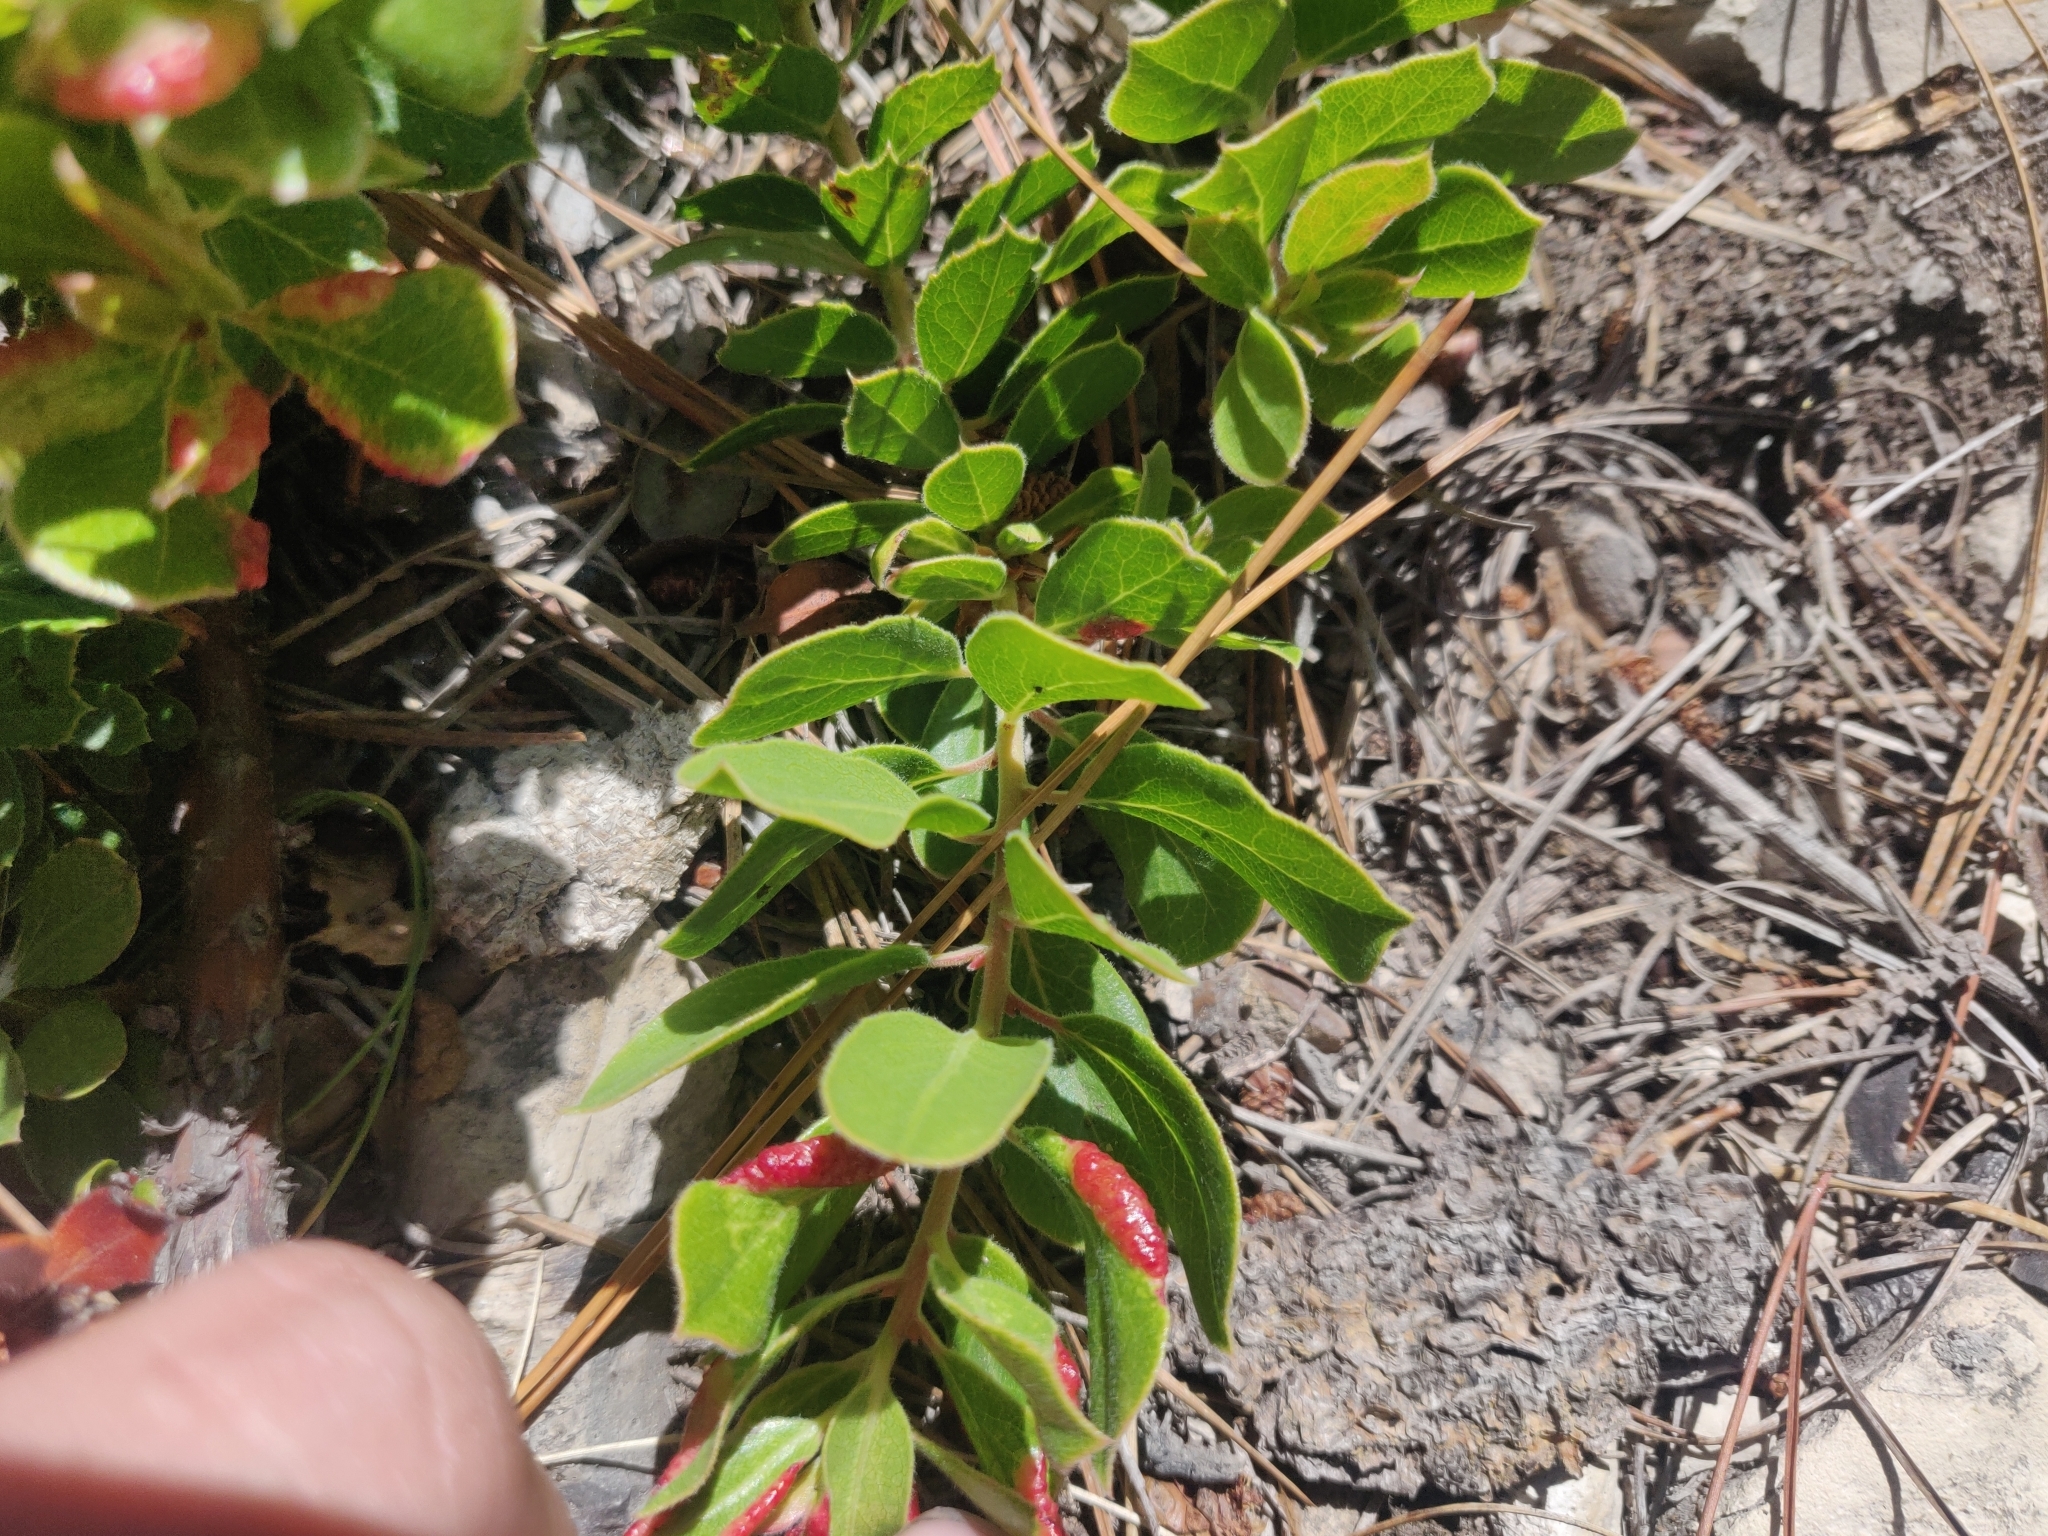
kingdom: Plantae
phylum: Tracheophyta
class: Magnoliopsida
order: Ericales
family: Ericaceae
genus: Arctostaphylos
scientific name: Arctostaphylos tomentosa
